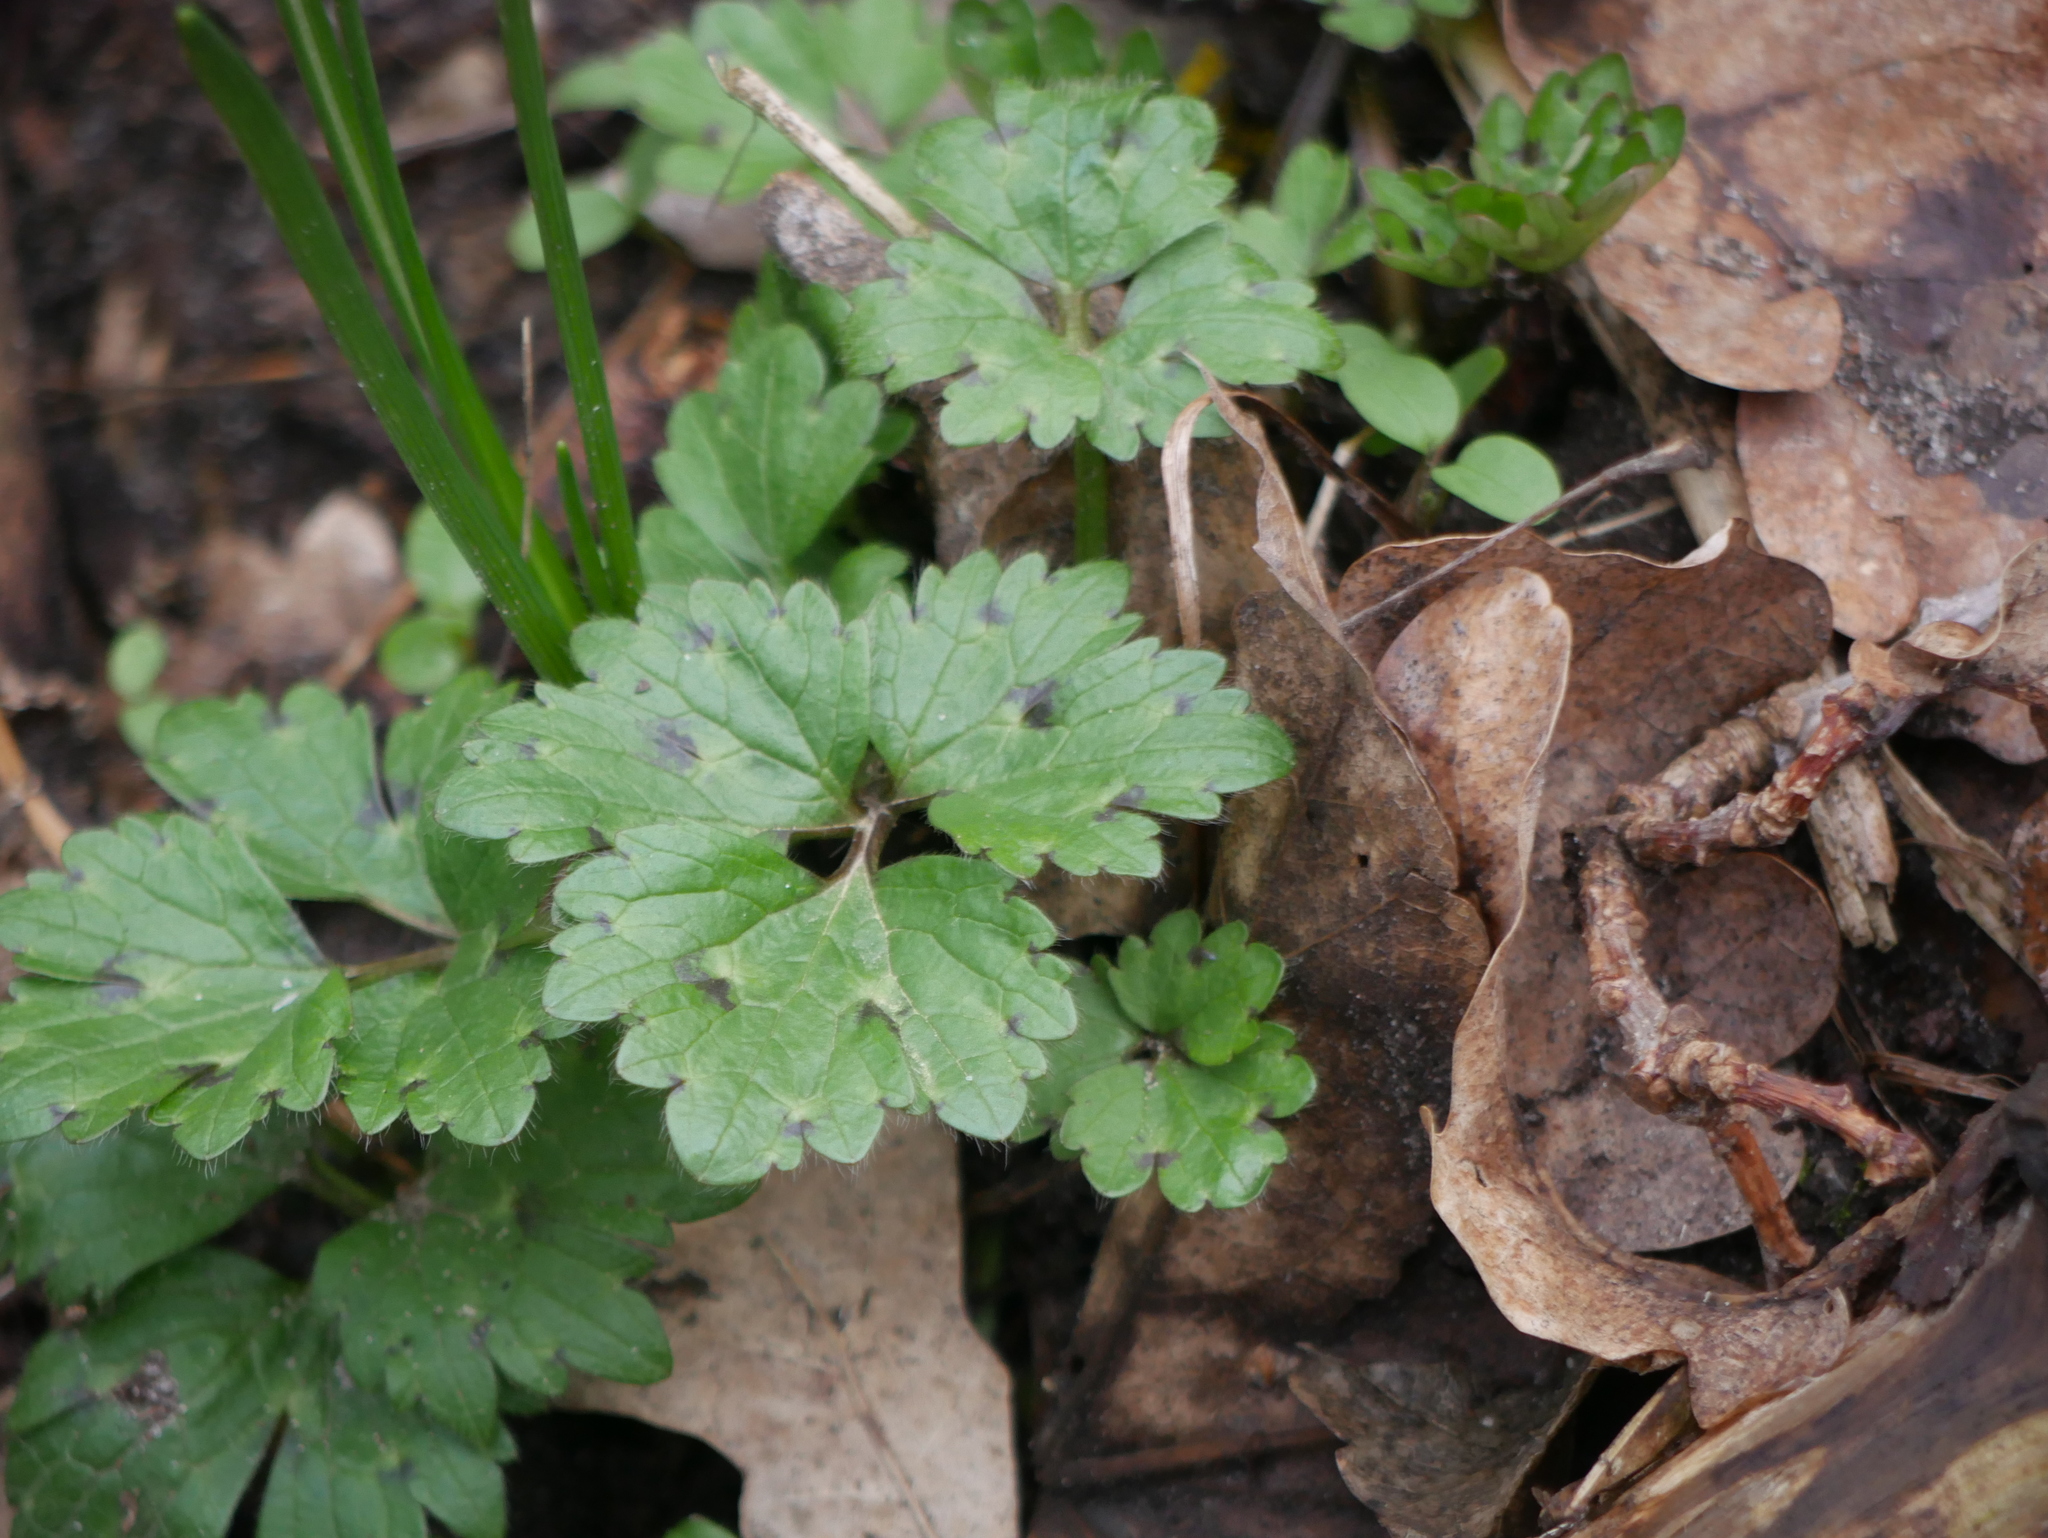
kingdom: Plantae
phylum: Tracheophyta
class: Magnoliopsida
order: Ranunculales
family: Ranunculaceae
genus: Ranunculus
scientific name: Ranunculus repens
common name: Creeping buttercup
